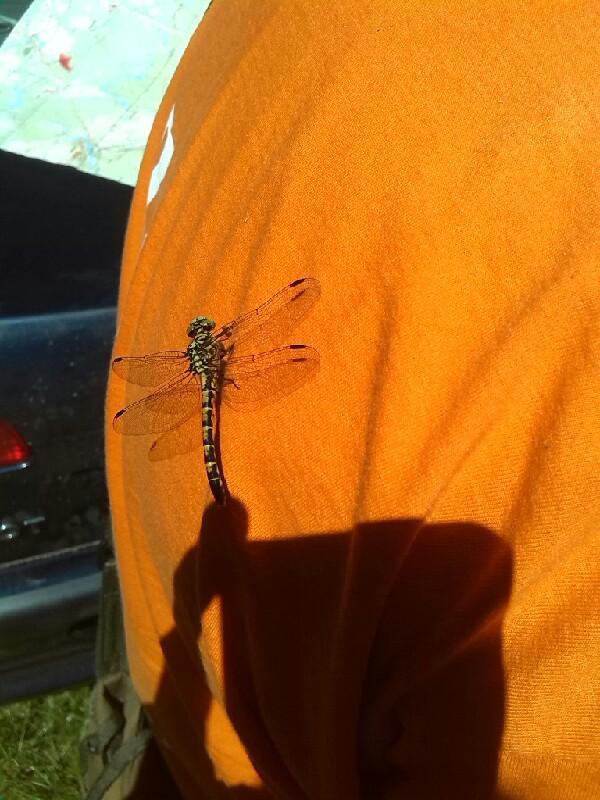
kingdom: Animalia
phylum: Arthropoda
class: Insecta
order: Odonata
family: Gomphidae
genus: Onychogomphus
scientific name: Onychogomphus forcipatus
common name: Small pincertail
